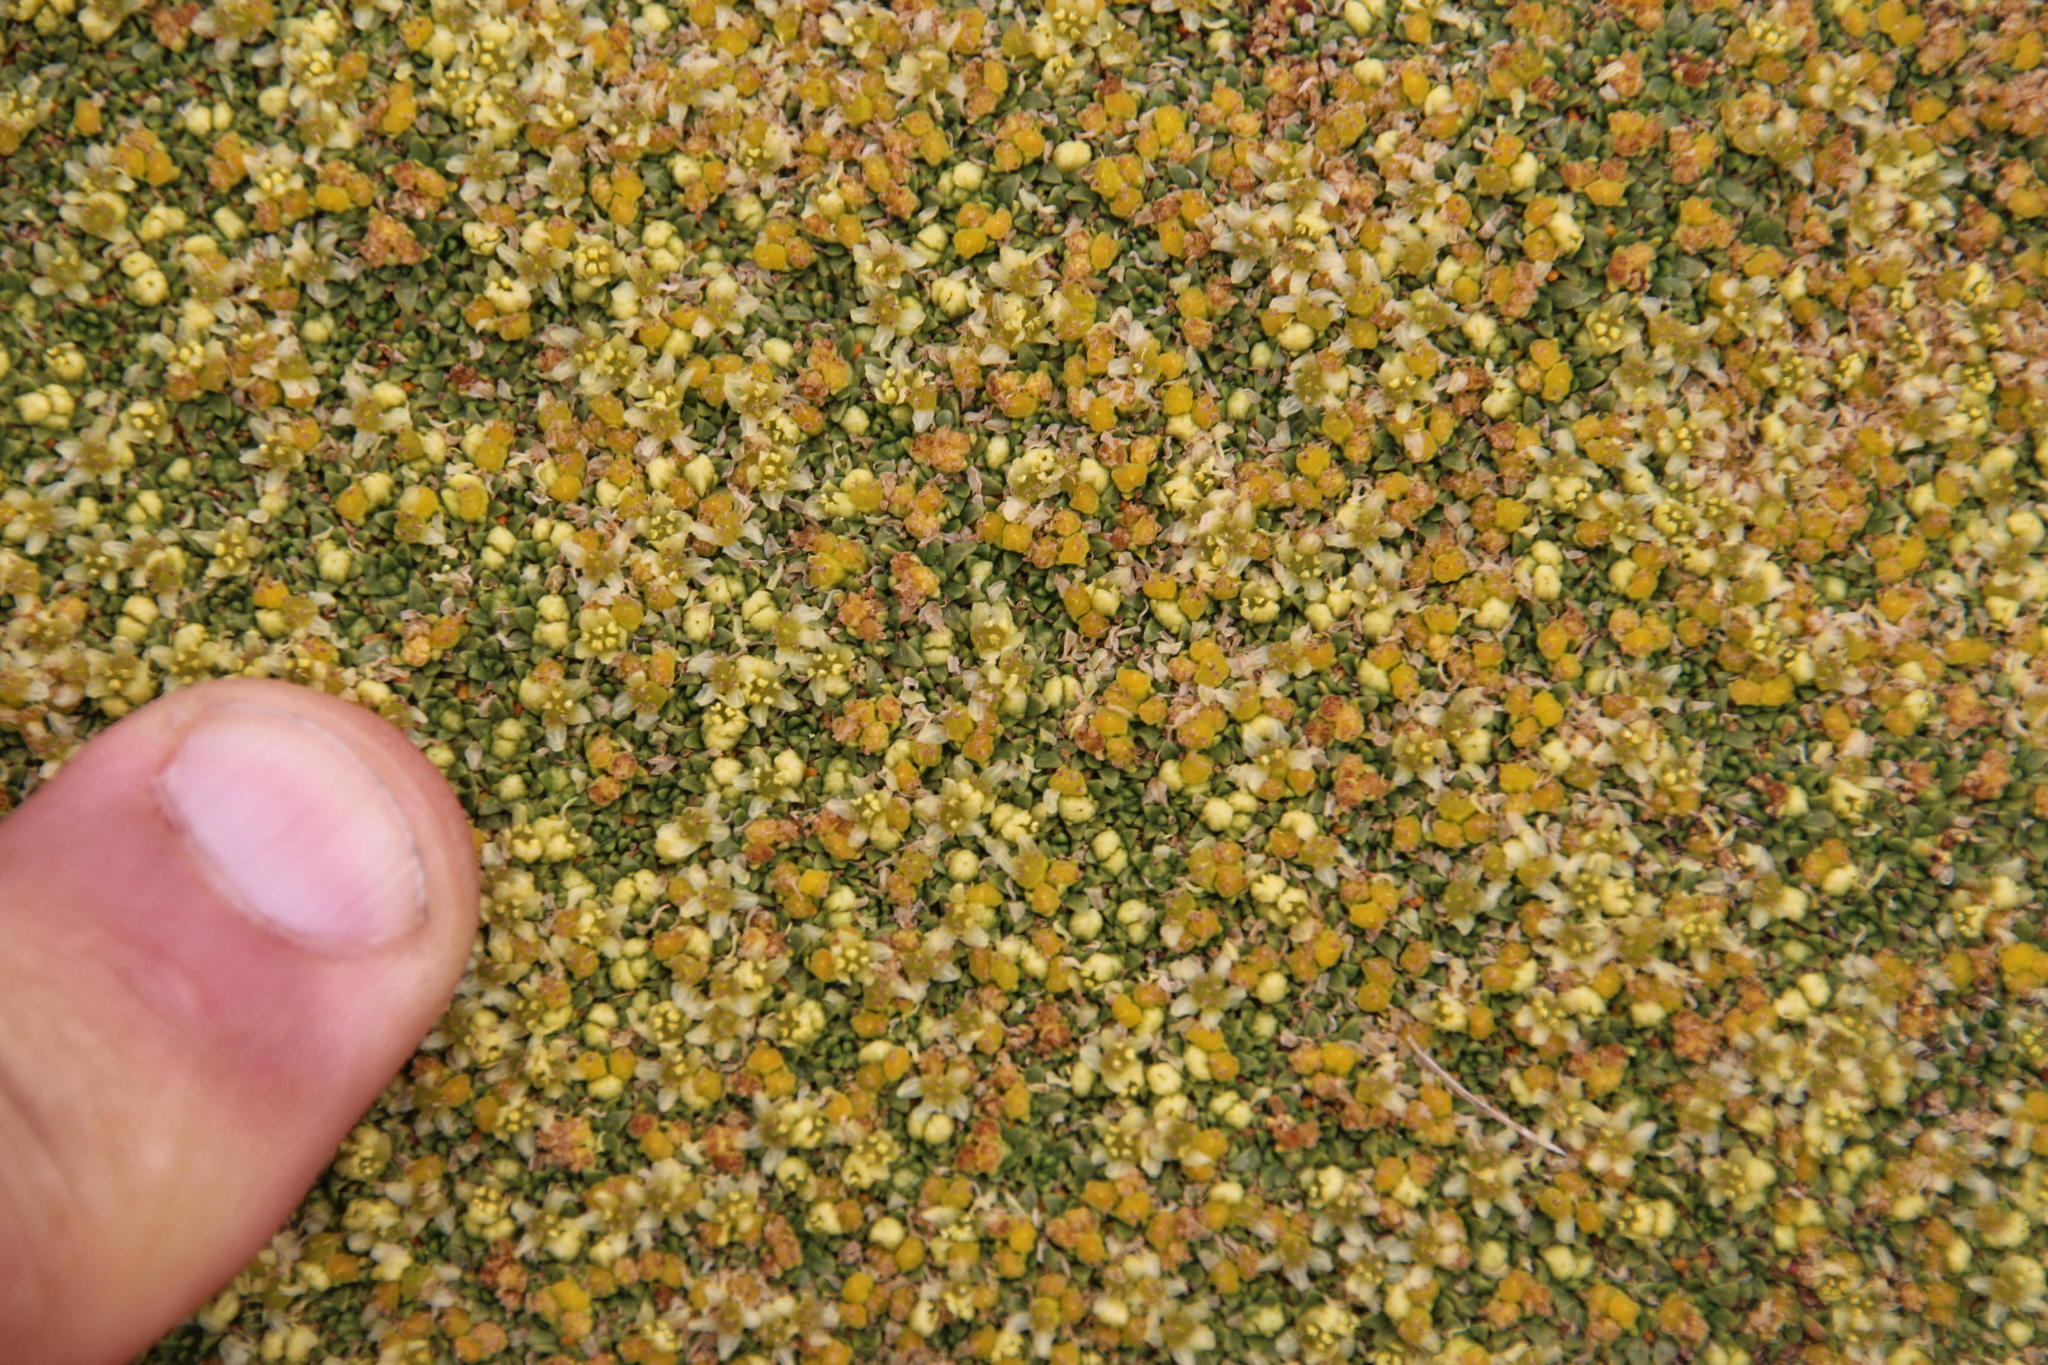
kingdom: Plantae
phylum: Tracheophyta
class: Magnoliopsida
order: Apiales
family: Apiaceae
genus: Azorella
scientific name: Azorella compacta
